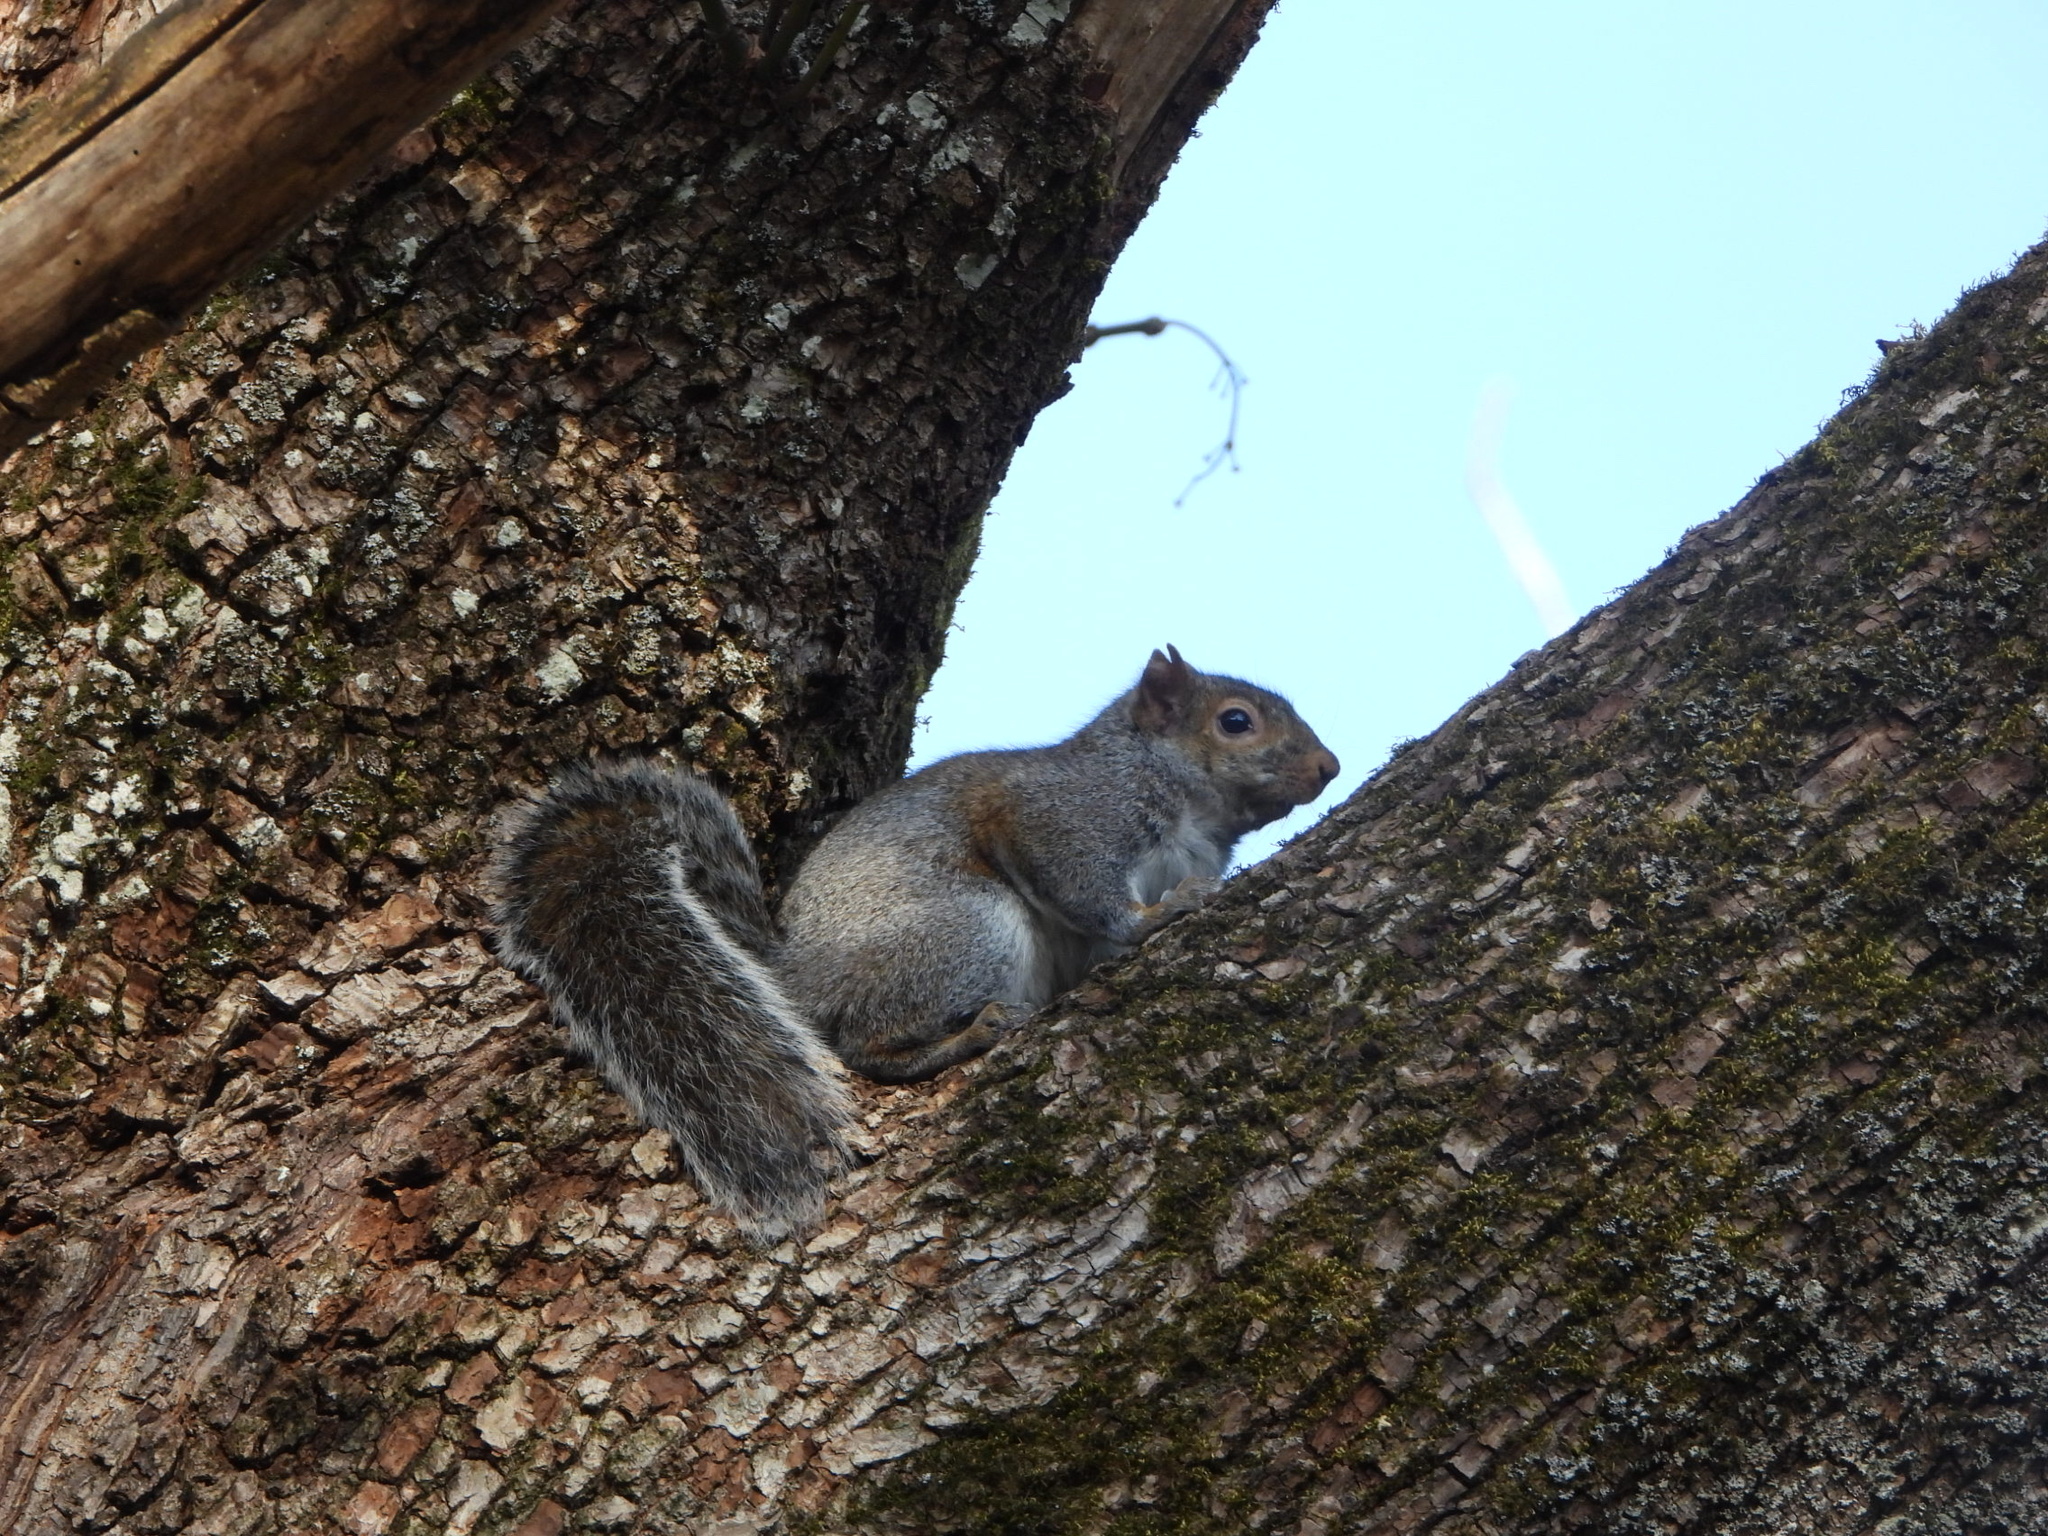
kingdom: Animalia
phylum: Chordata
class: Mammalia
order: Rodentia
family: Sciuridae
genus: Sciurus
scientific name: Sciurus carolinensis
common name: Eastern gray squirrel
